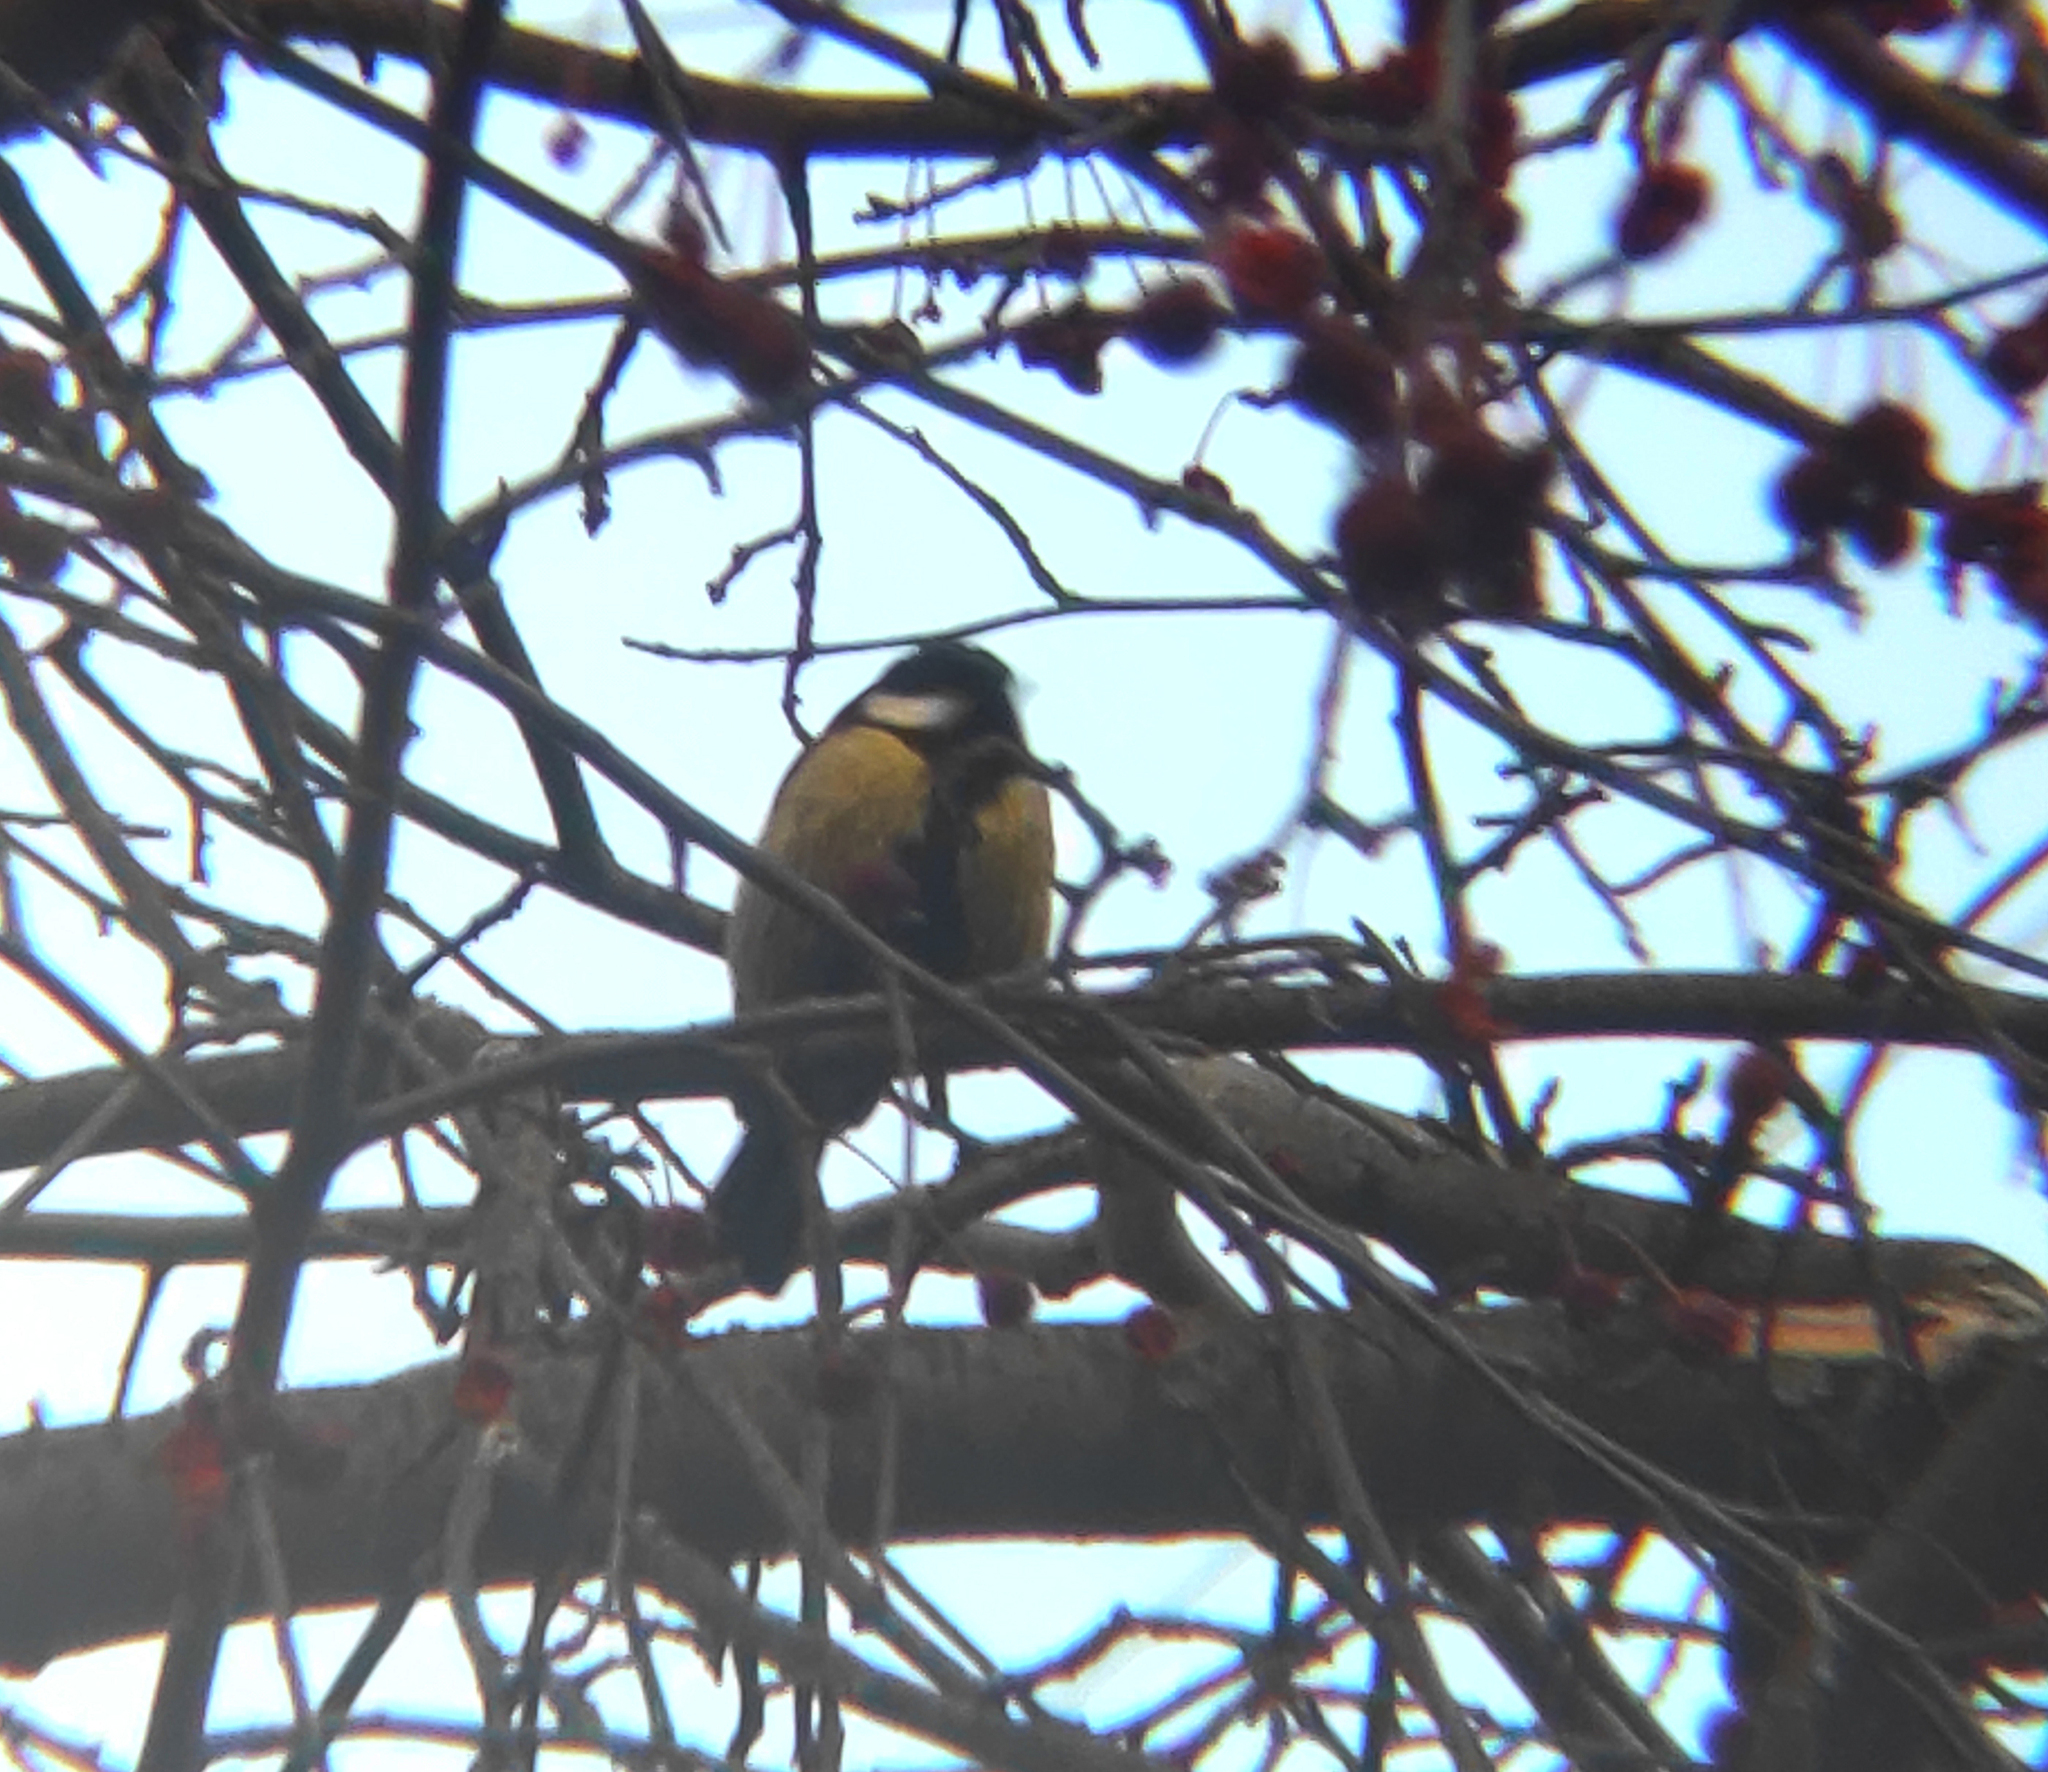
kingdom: Animalia
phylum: Chordata
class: Aves
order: Passeriformes
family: Paridae
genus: Parus
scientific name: Parus major
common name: Great tit
